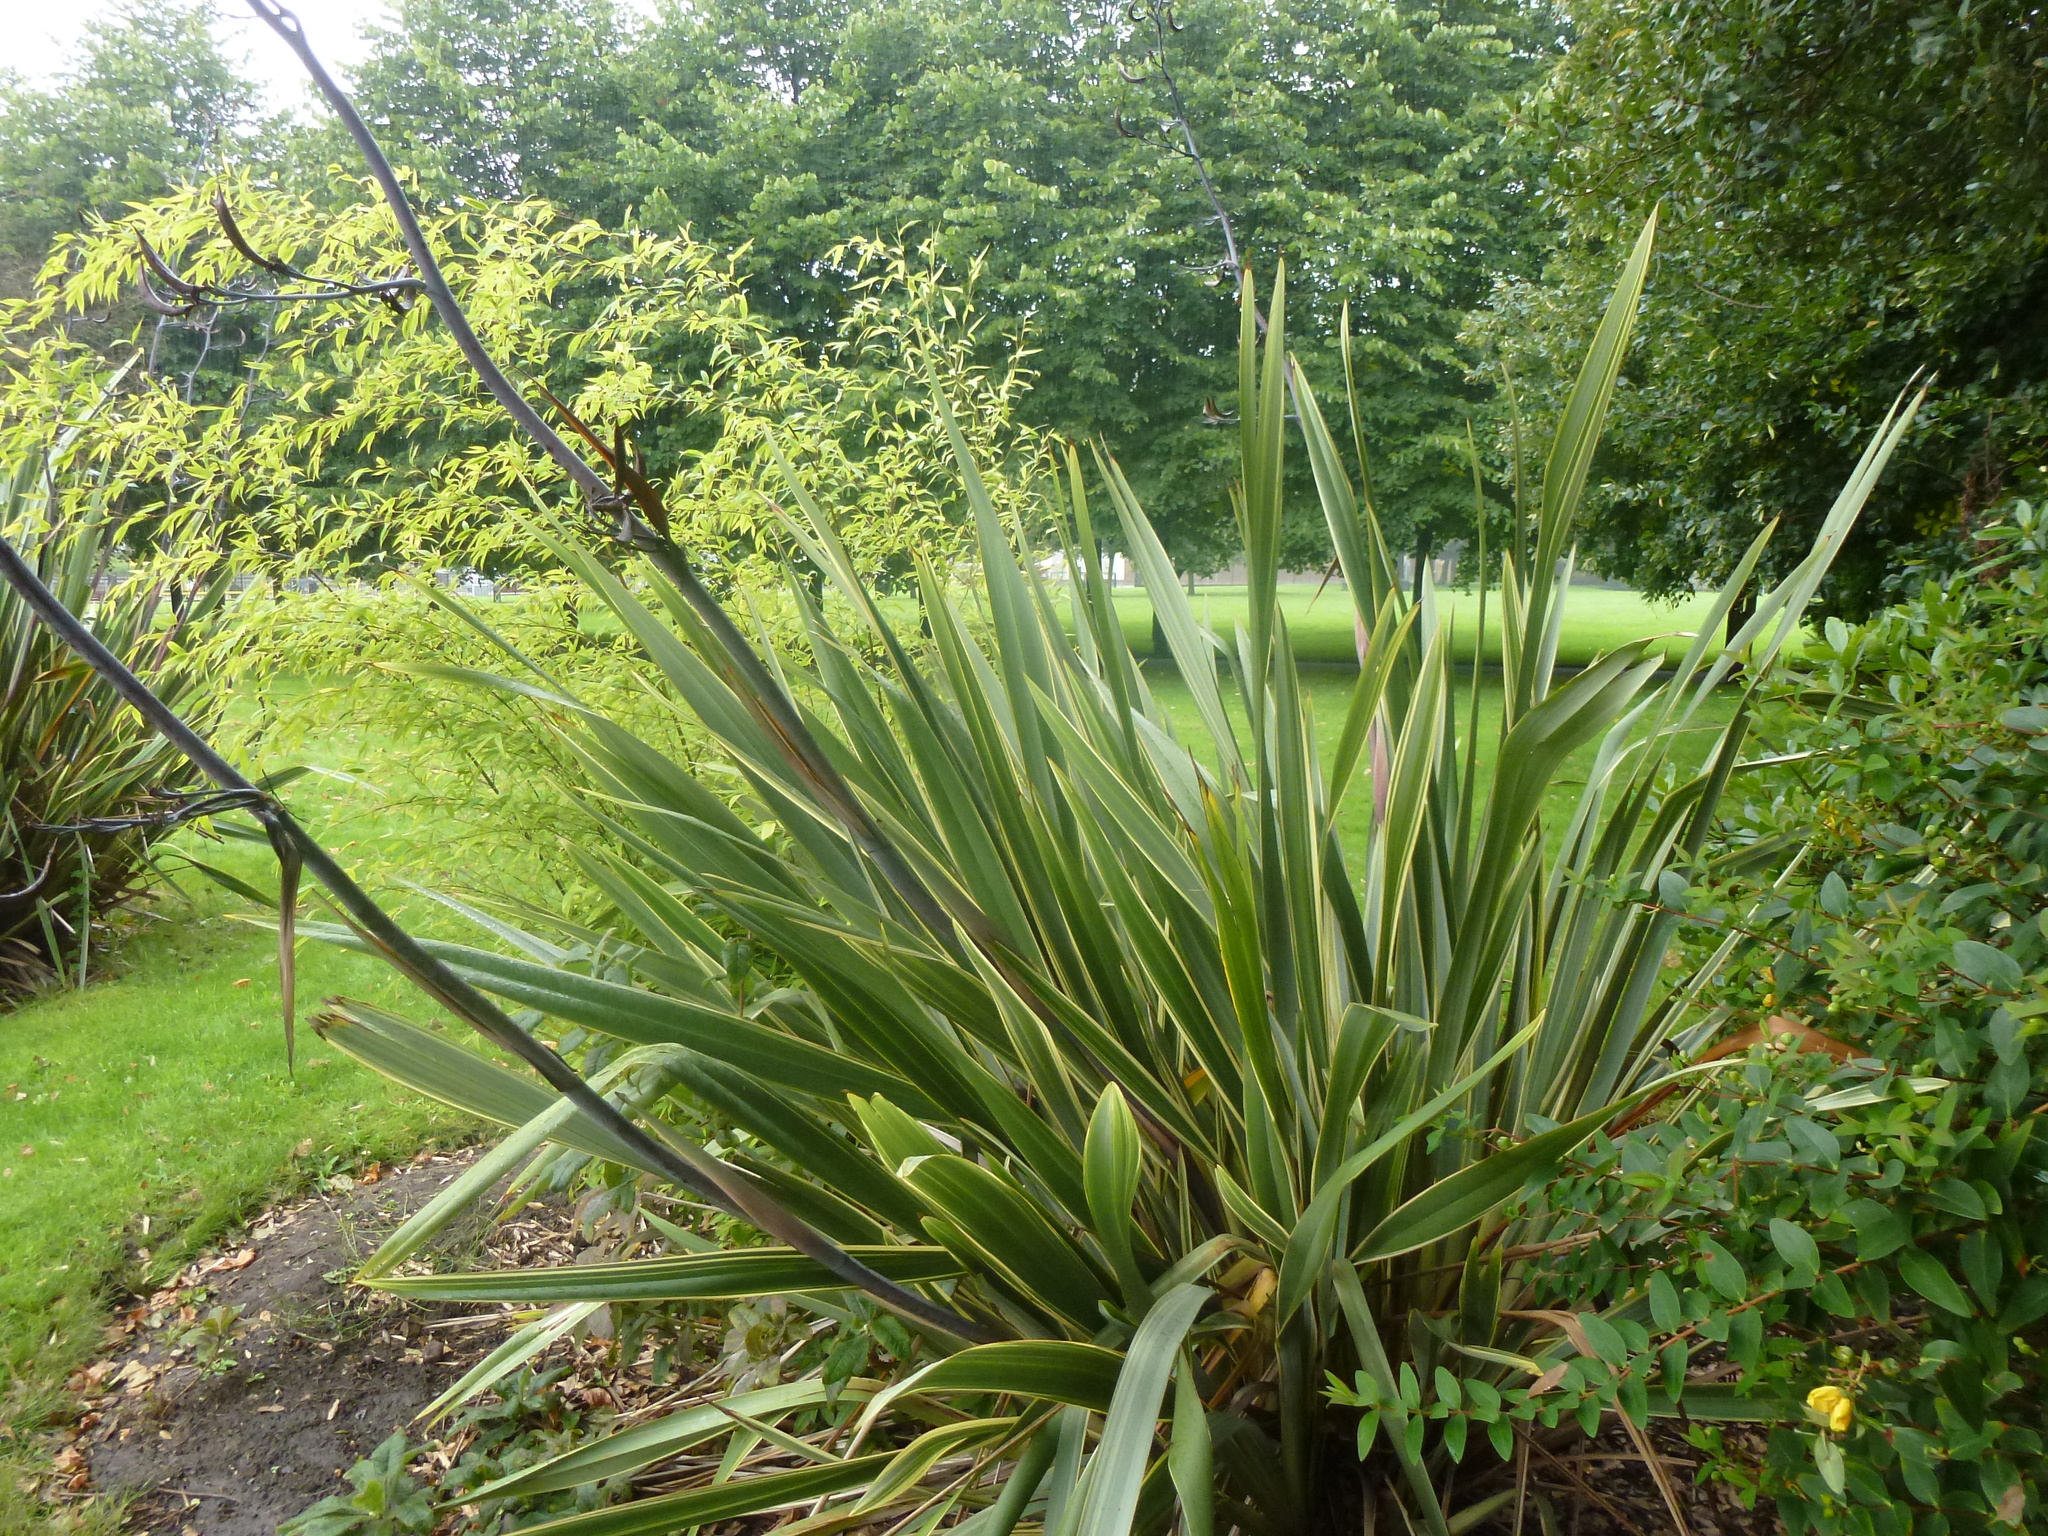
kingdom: Plantae
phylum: Tracheophyta
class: Liliopsida
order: Asparagales
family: Asphodelaceae
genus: Phormium
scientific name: Phormium tenax
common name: New zealand flax
